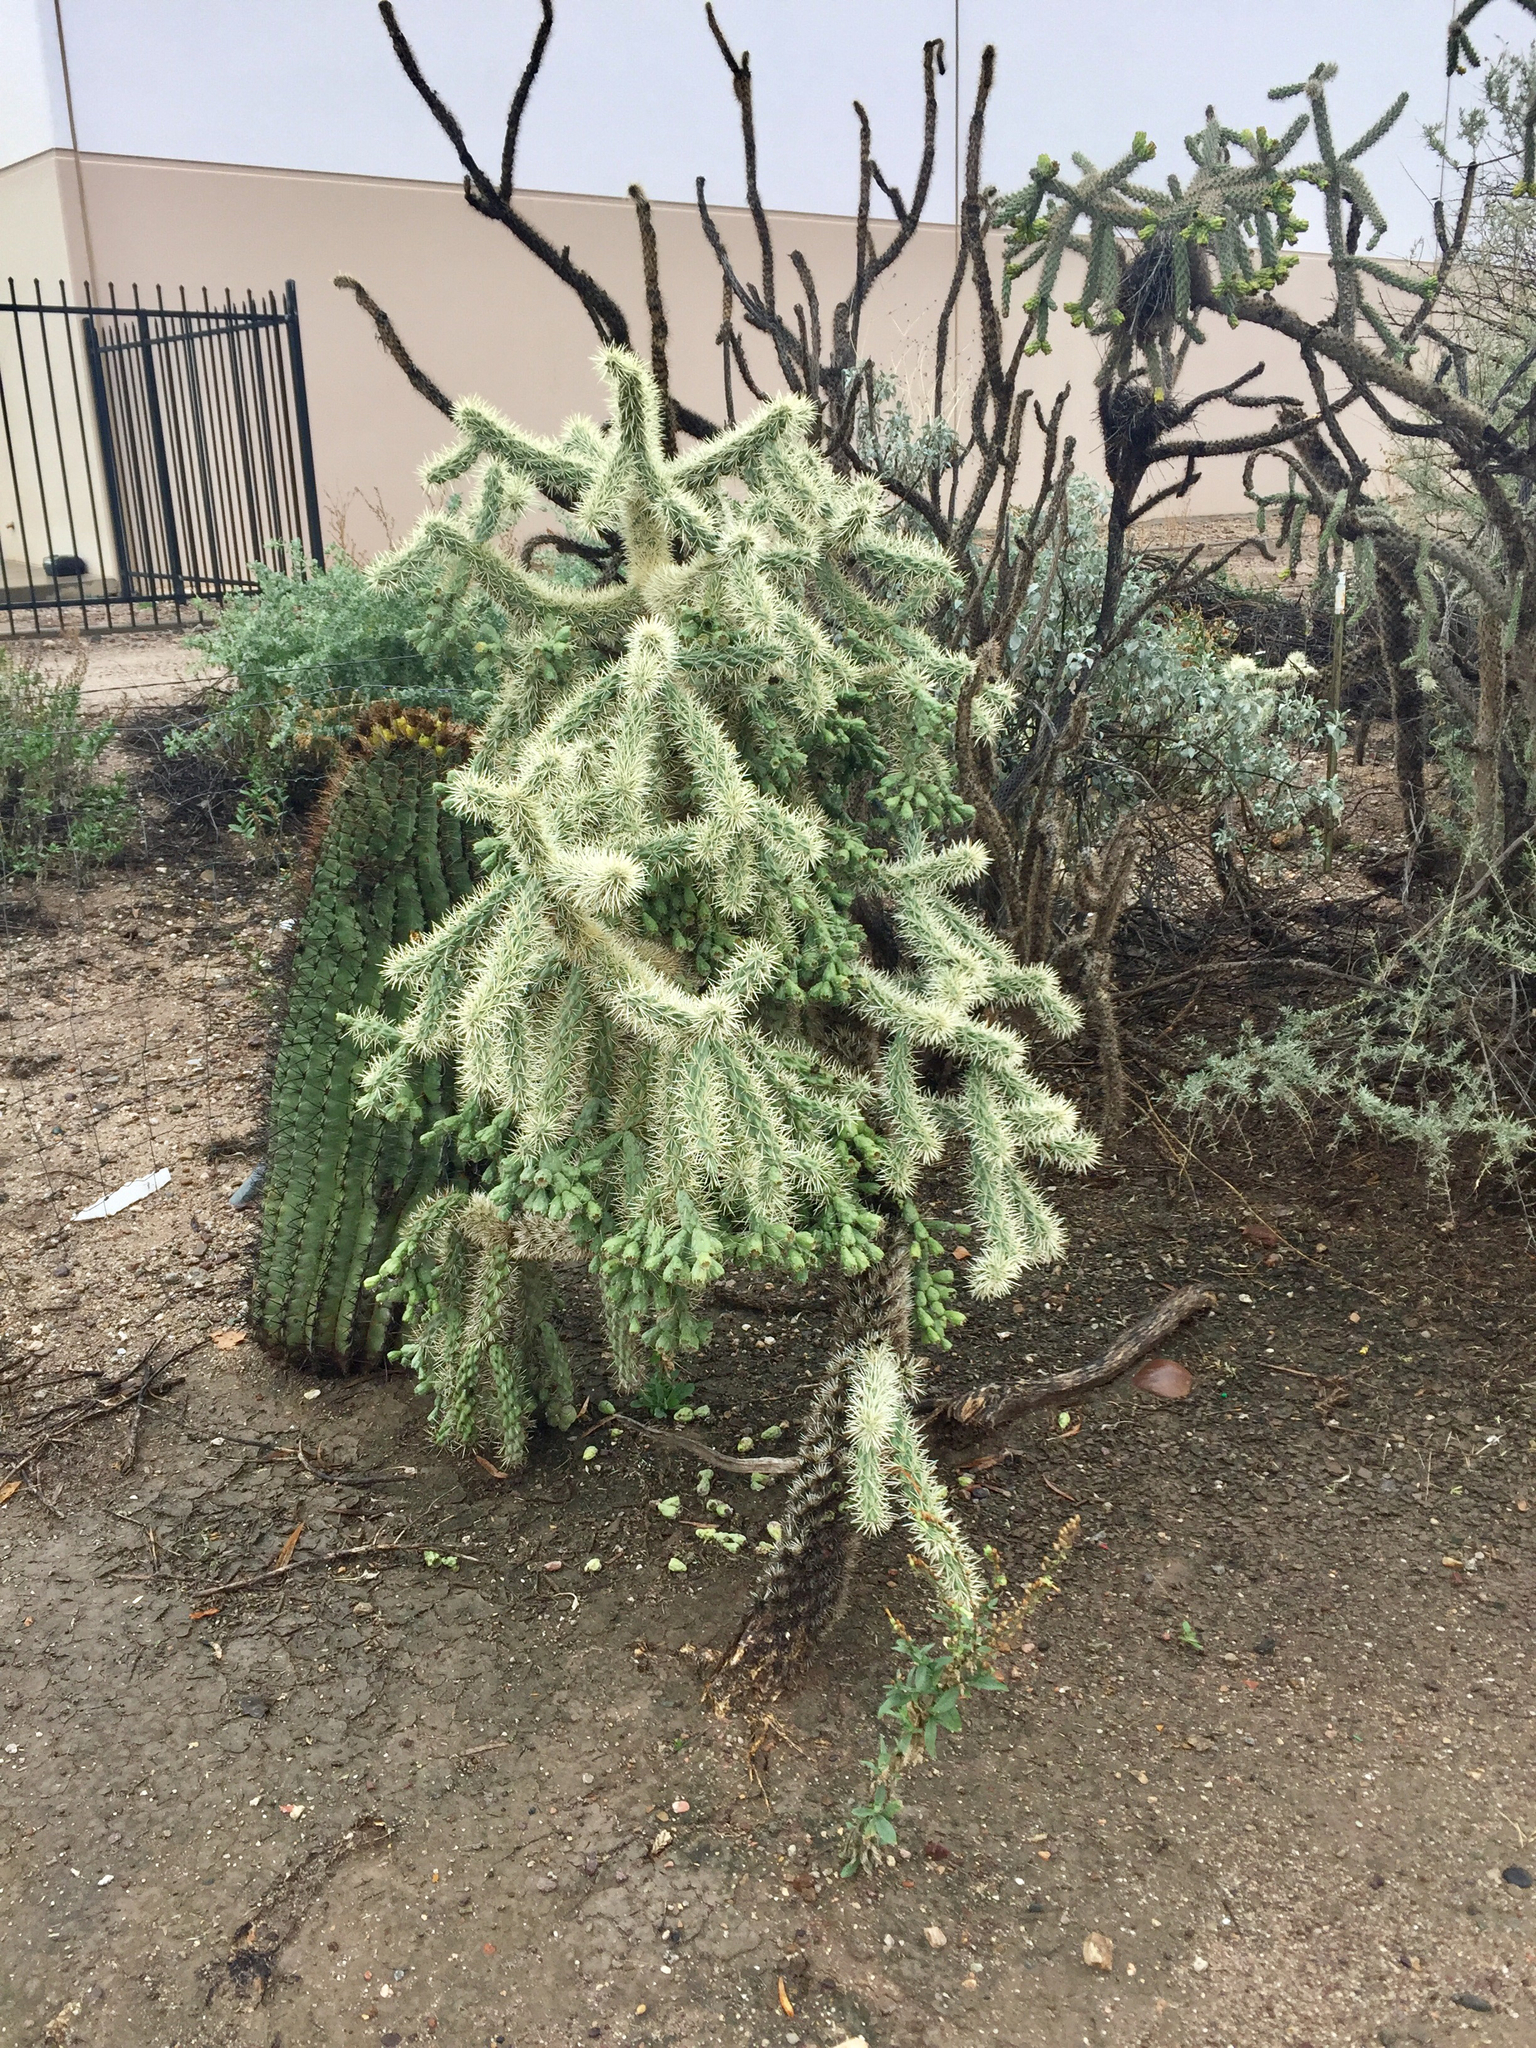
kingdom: Plantae
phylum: Tracheophyta
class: Magnoliopsida
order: Caryophyllales
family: Cactaceae
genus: Cylindropuntia
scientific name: Cylindropuntia fulgida
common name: Jumping cholla
